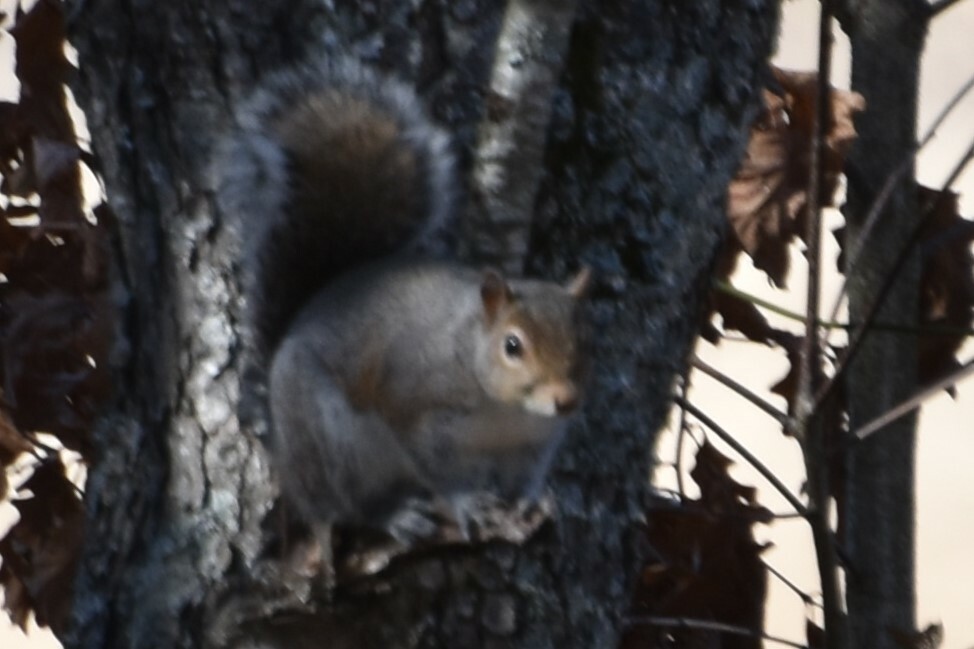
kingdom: Animalia
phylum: Chordata
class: Mammalia
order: Rodentia
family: Sciuridae
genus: Sciurus
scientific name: Sciurus carolinensis
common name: Eastern gray squirrel
